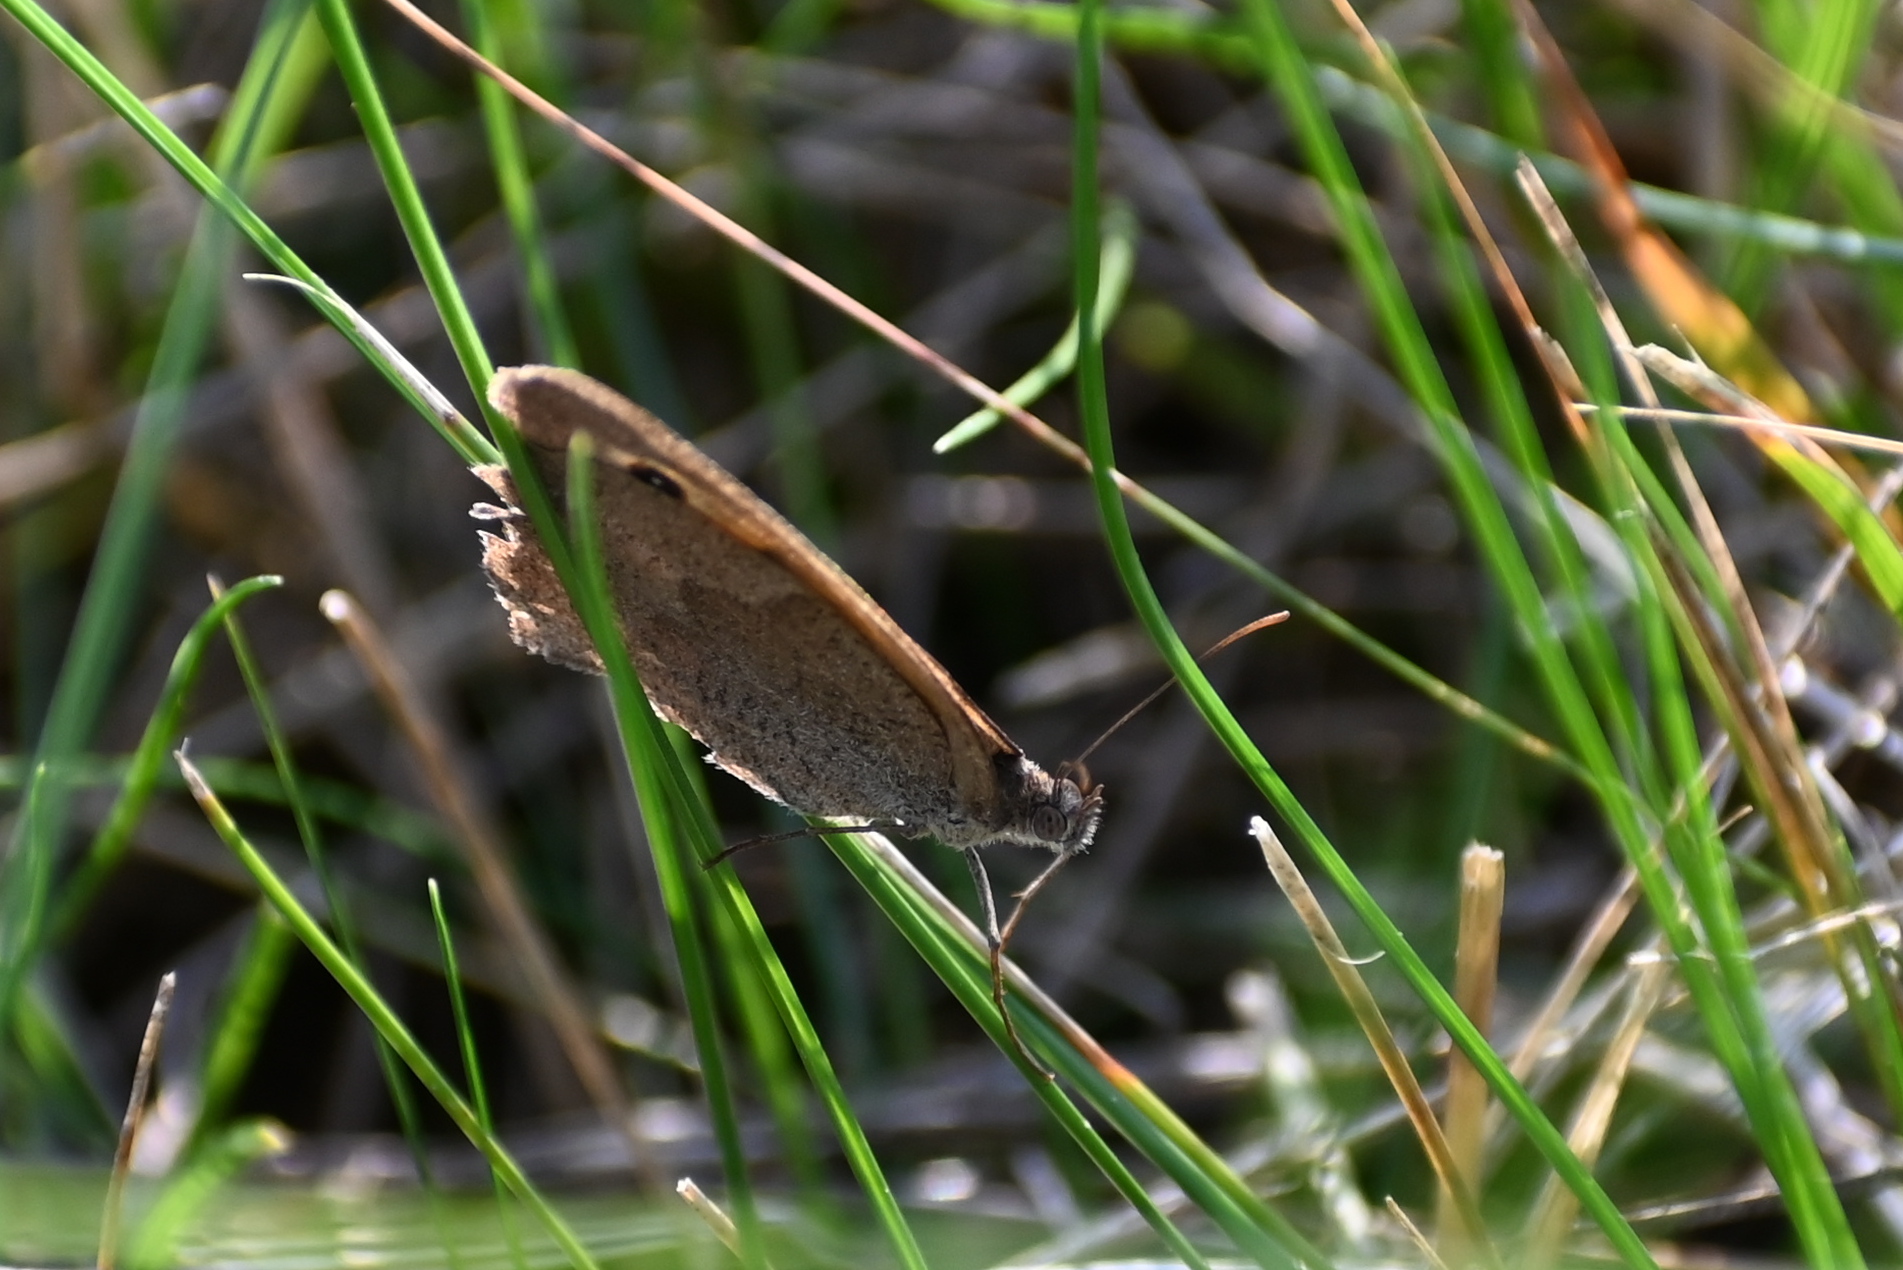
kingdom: Animalia
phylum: Arthropoda
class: Insecta
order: Lepidoptera
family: Nymphalidae
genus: Maniola
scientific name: Maniola jurtina
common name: Meadow brown
